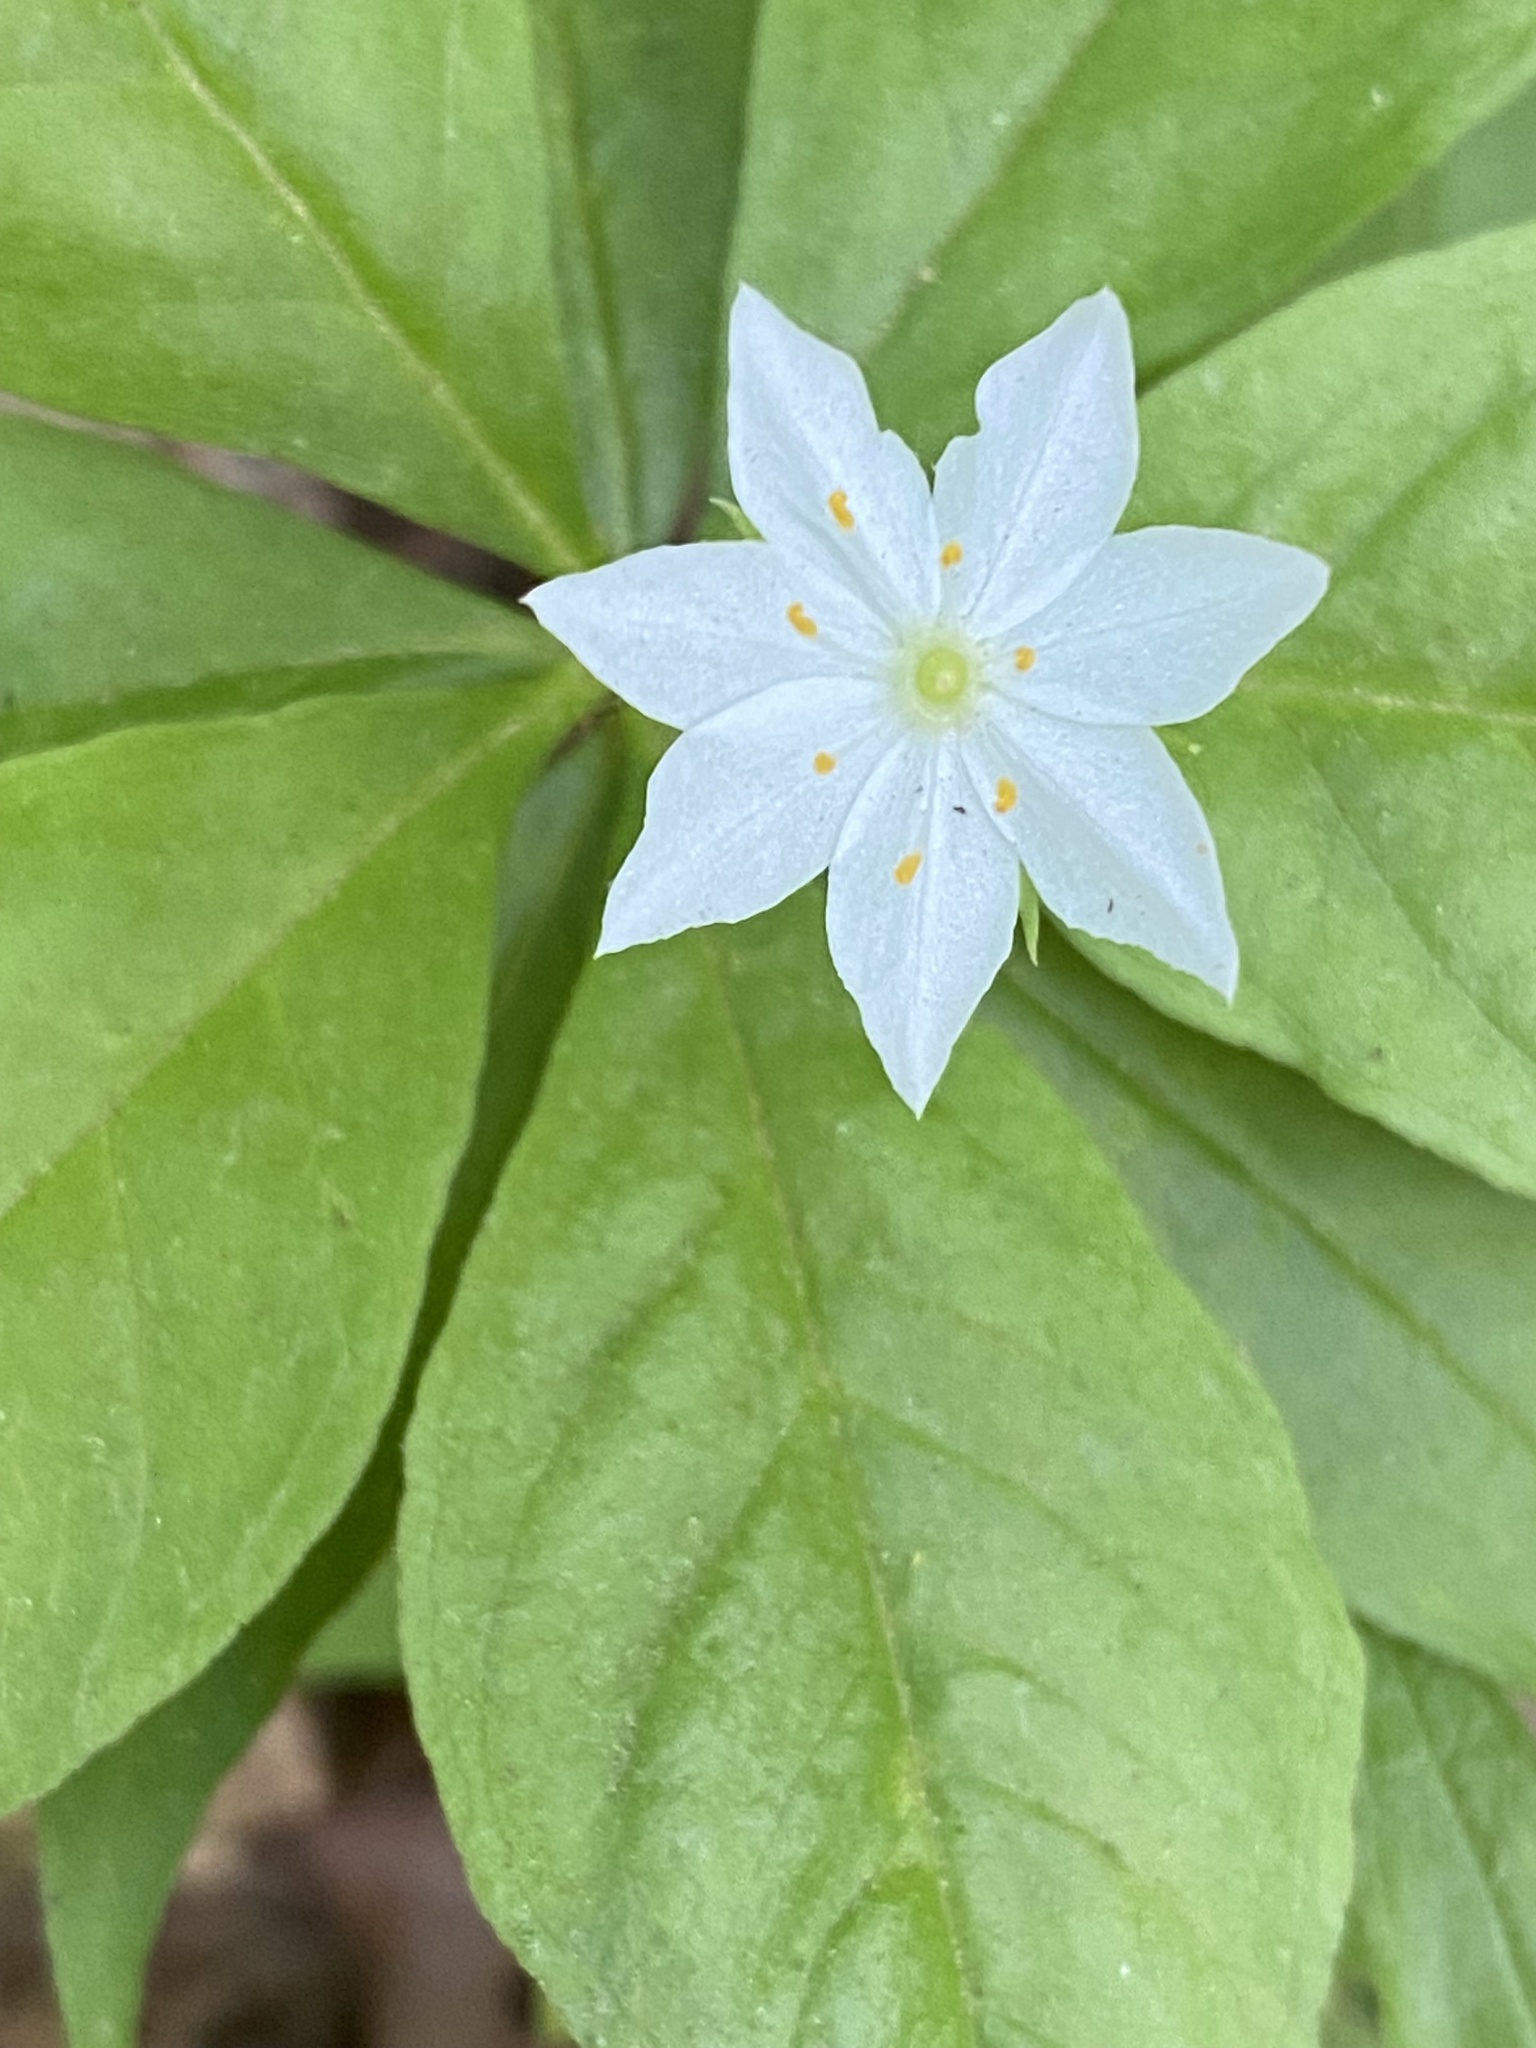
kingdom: Plantae
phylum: Tracheophyta
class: Magnoliopsida
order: Ericales
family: Primulaceae
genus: Lysimachia
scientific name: Lysimachia borealis
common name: American starflower
